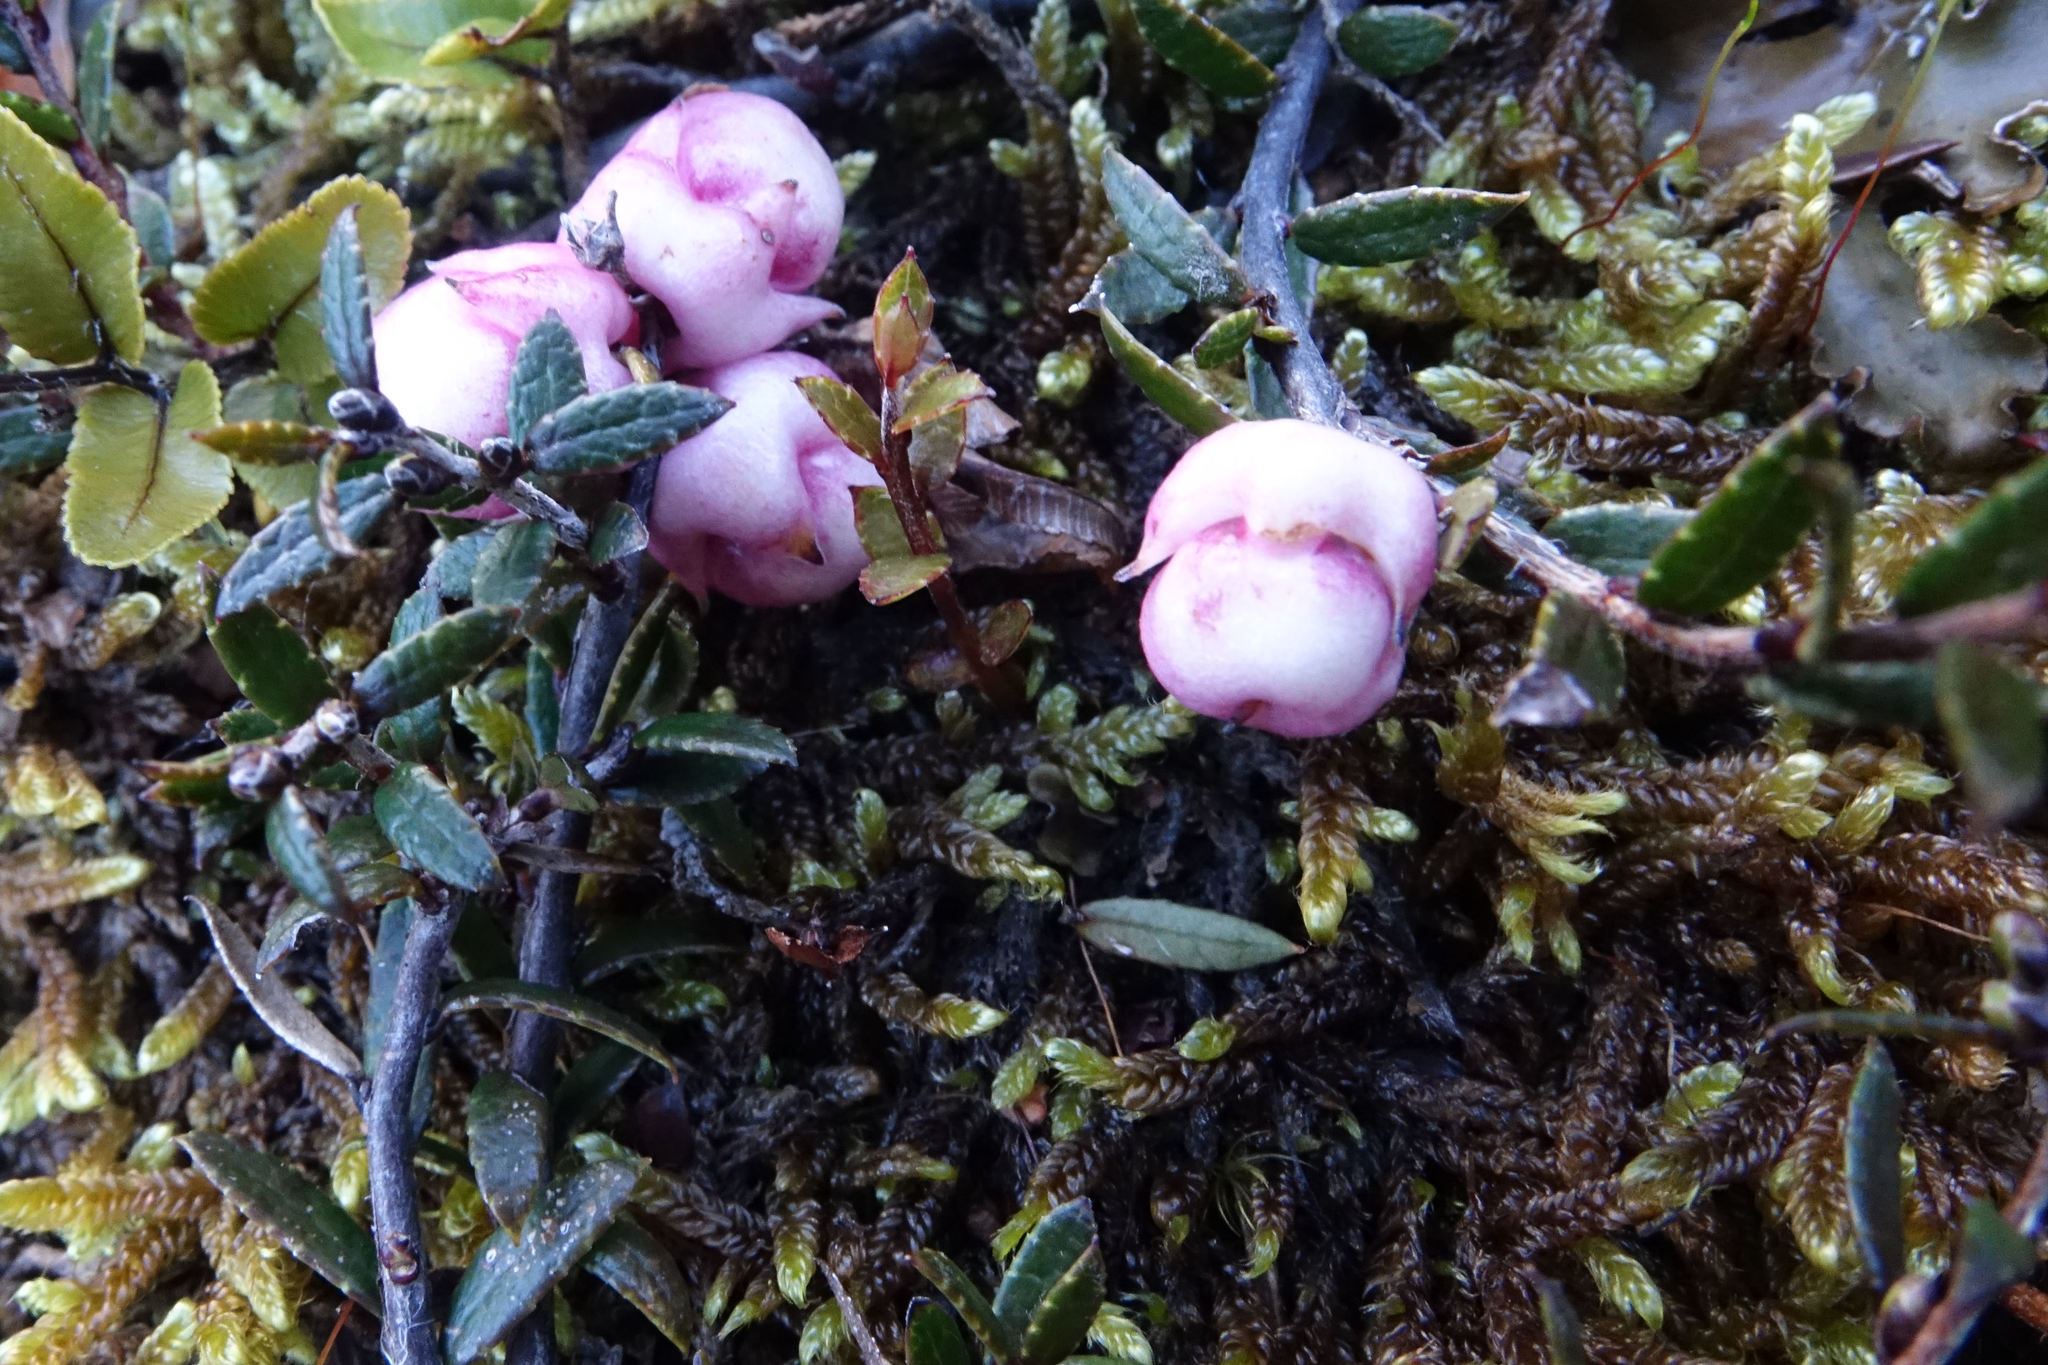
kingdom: Plantae
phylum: Tracheophyta
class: Magnoliopsida
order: Ericales
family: Ericaceae
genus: Gaultheria
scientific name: Gaultheria macrostigma
